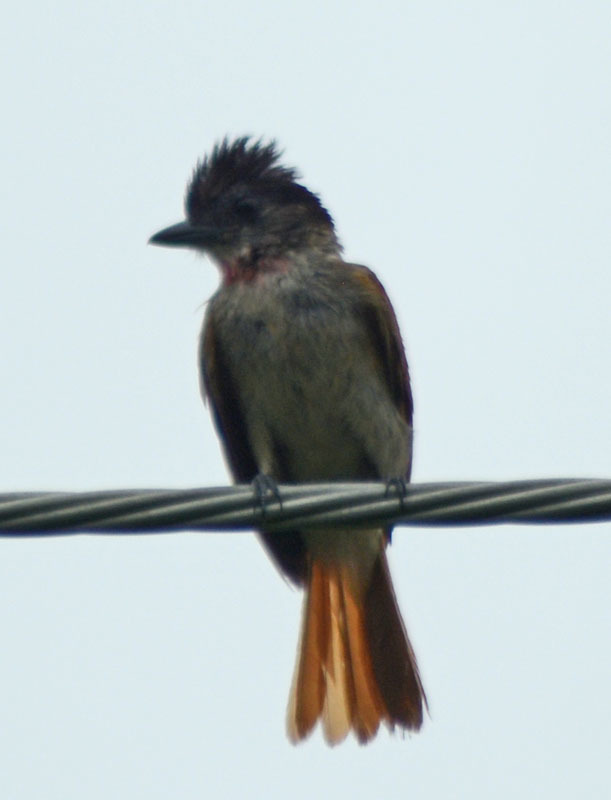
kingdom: Animalia
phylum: Chordata
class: Aves
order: Passeriformes
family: Cotingidae
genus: Pachyramphus
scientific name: Pachyramphus aglaiae
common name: Rose-throated becard
